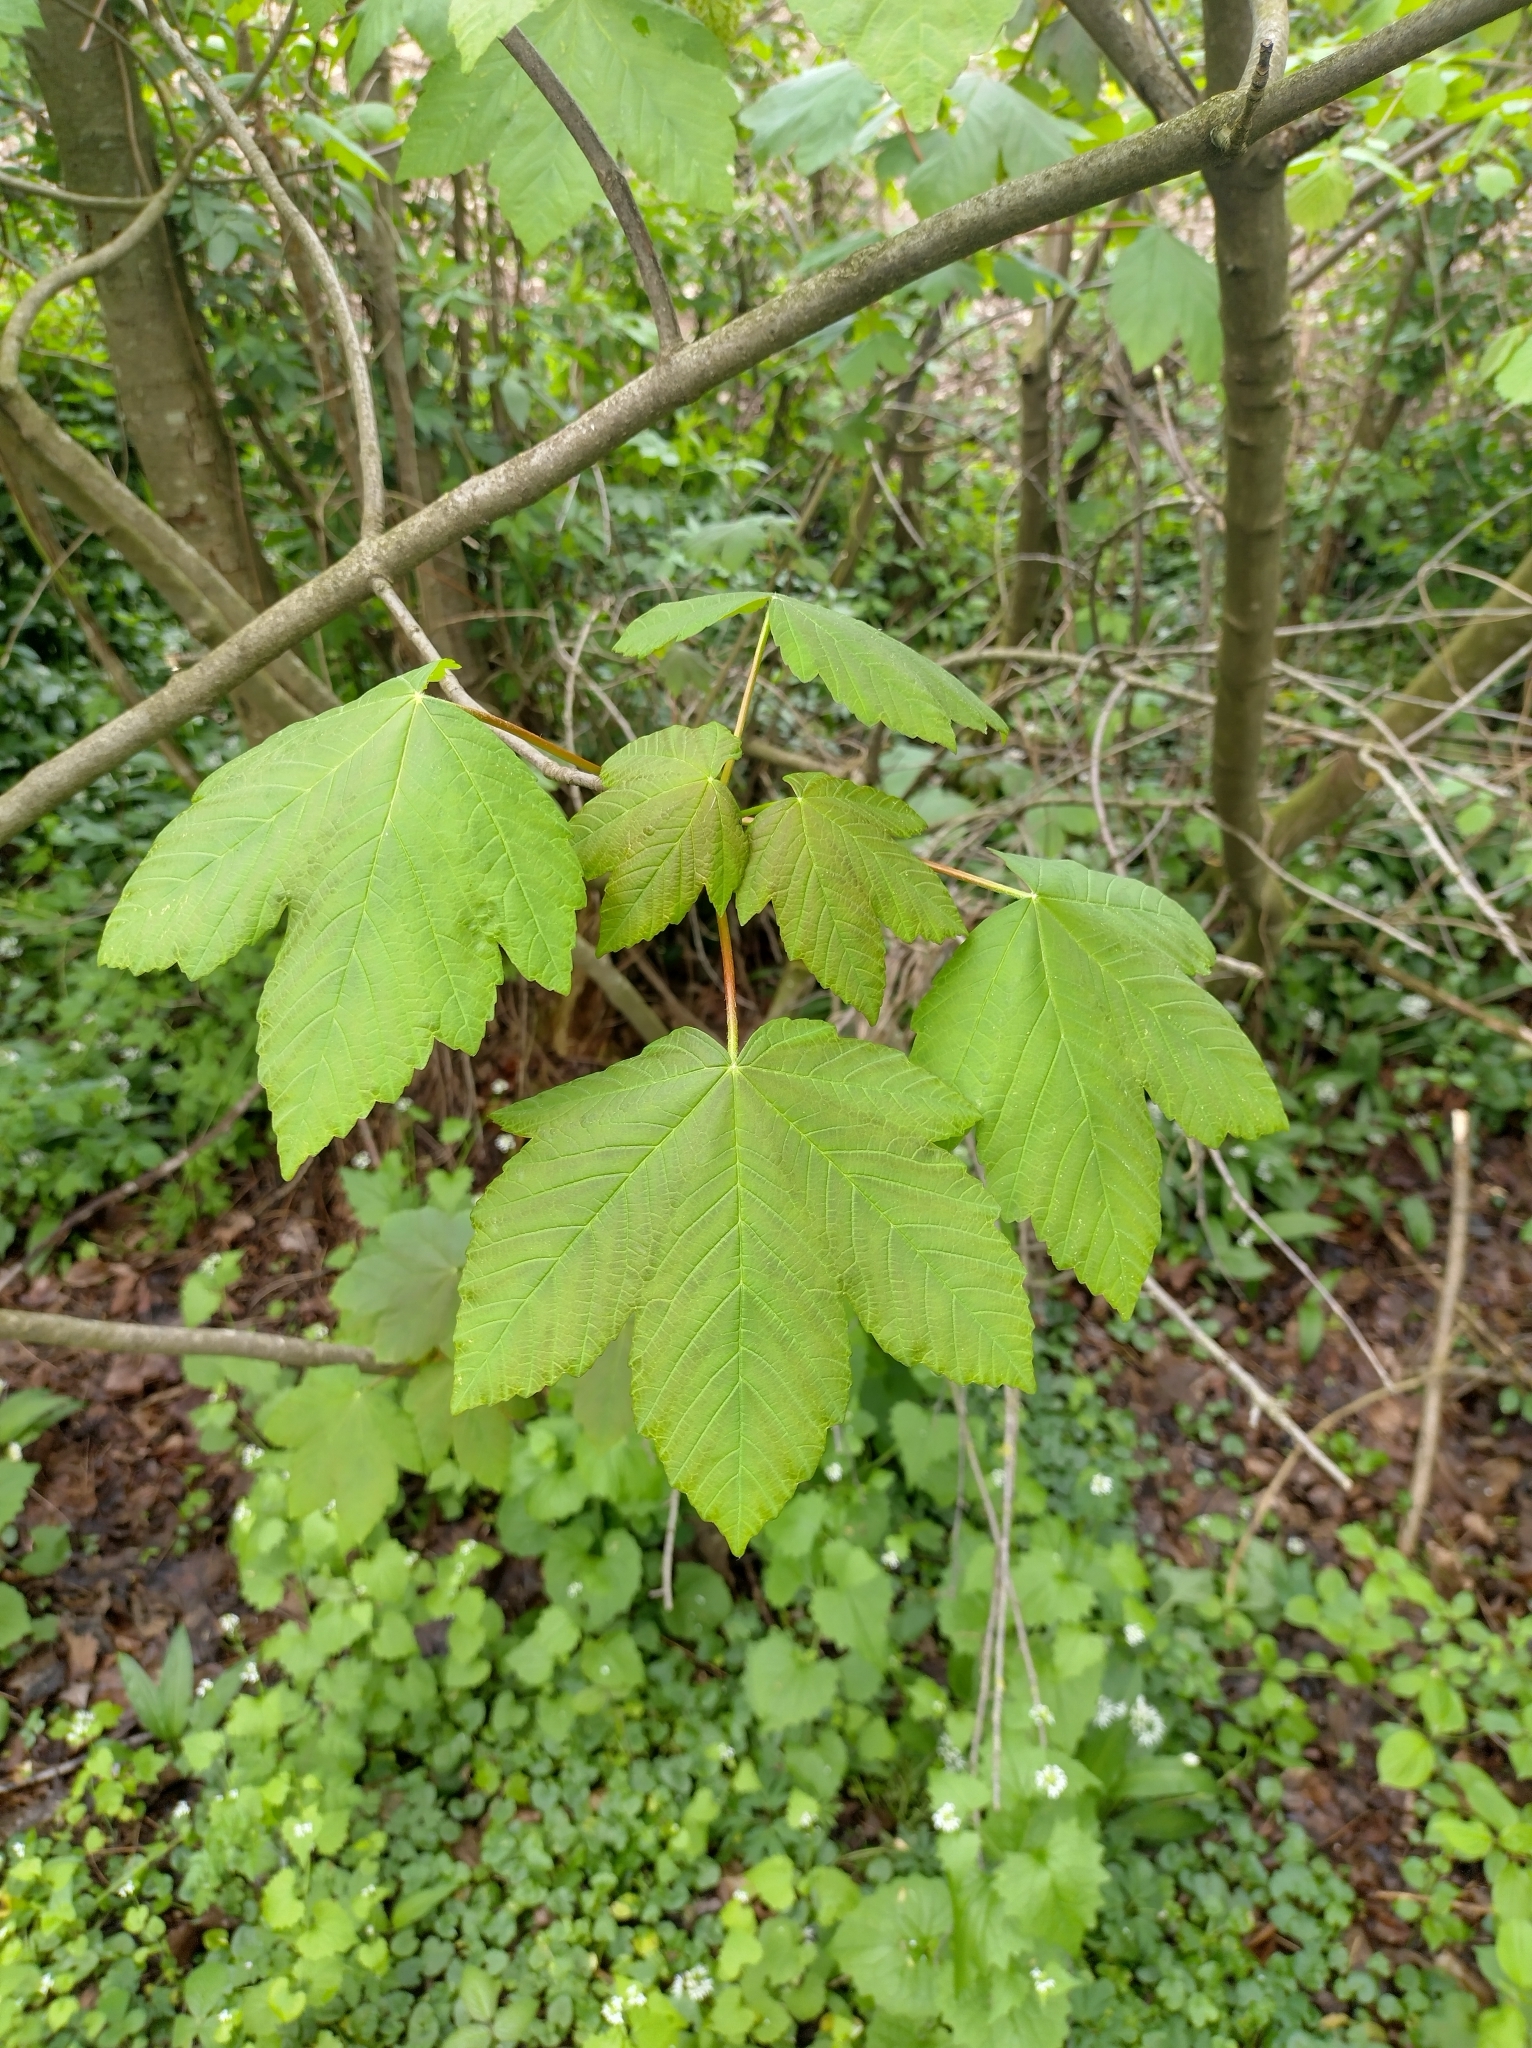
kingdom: Plantae
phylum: Tracheophyta
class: Magnoliopsida
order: Sapindales
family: Sapindaceae
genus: Acer
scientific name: Acer pseudoplatanus
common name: Sycamore
